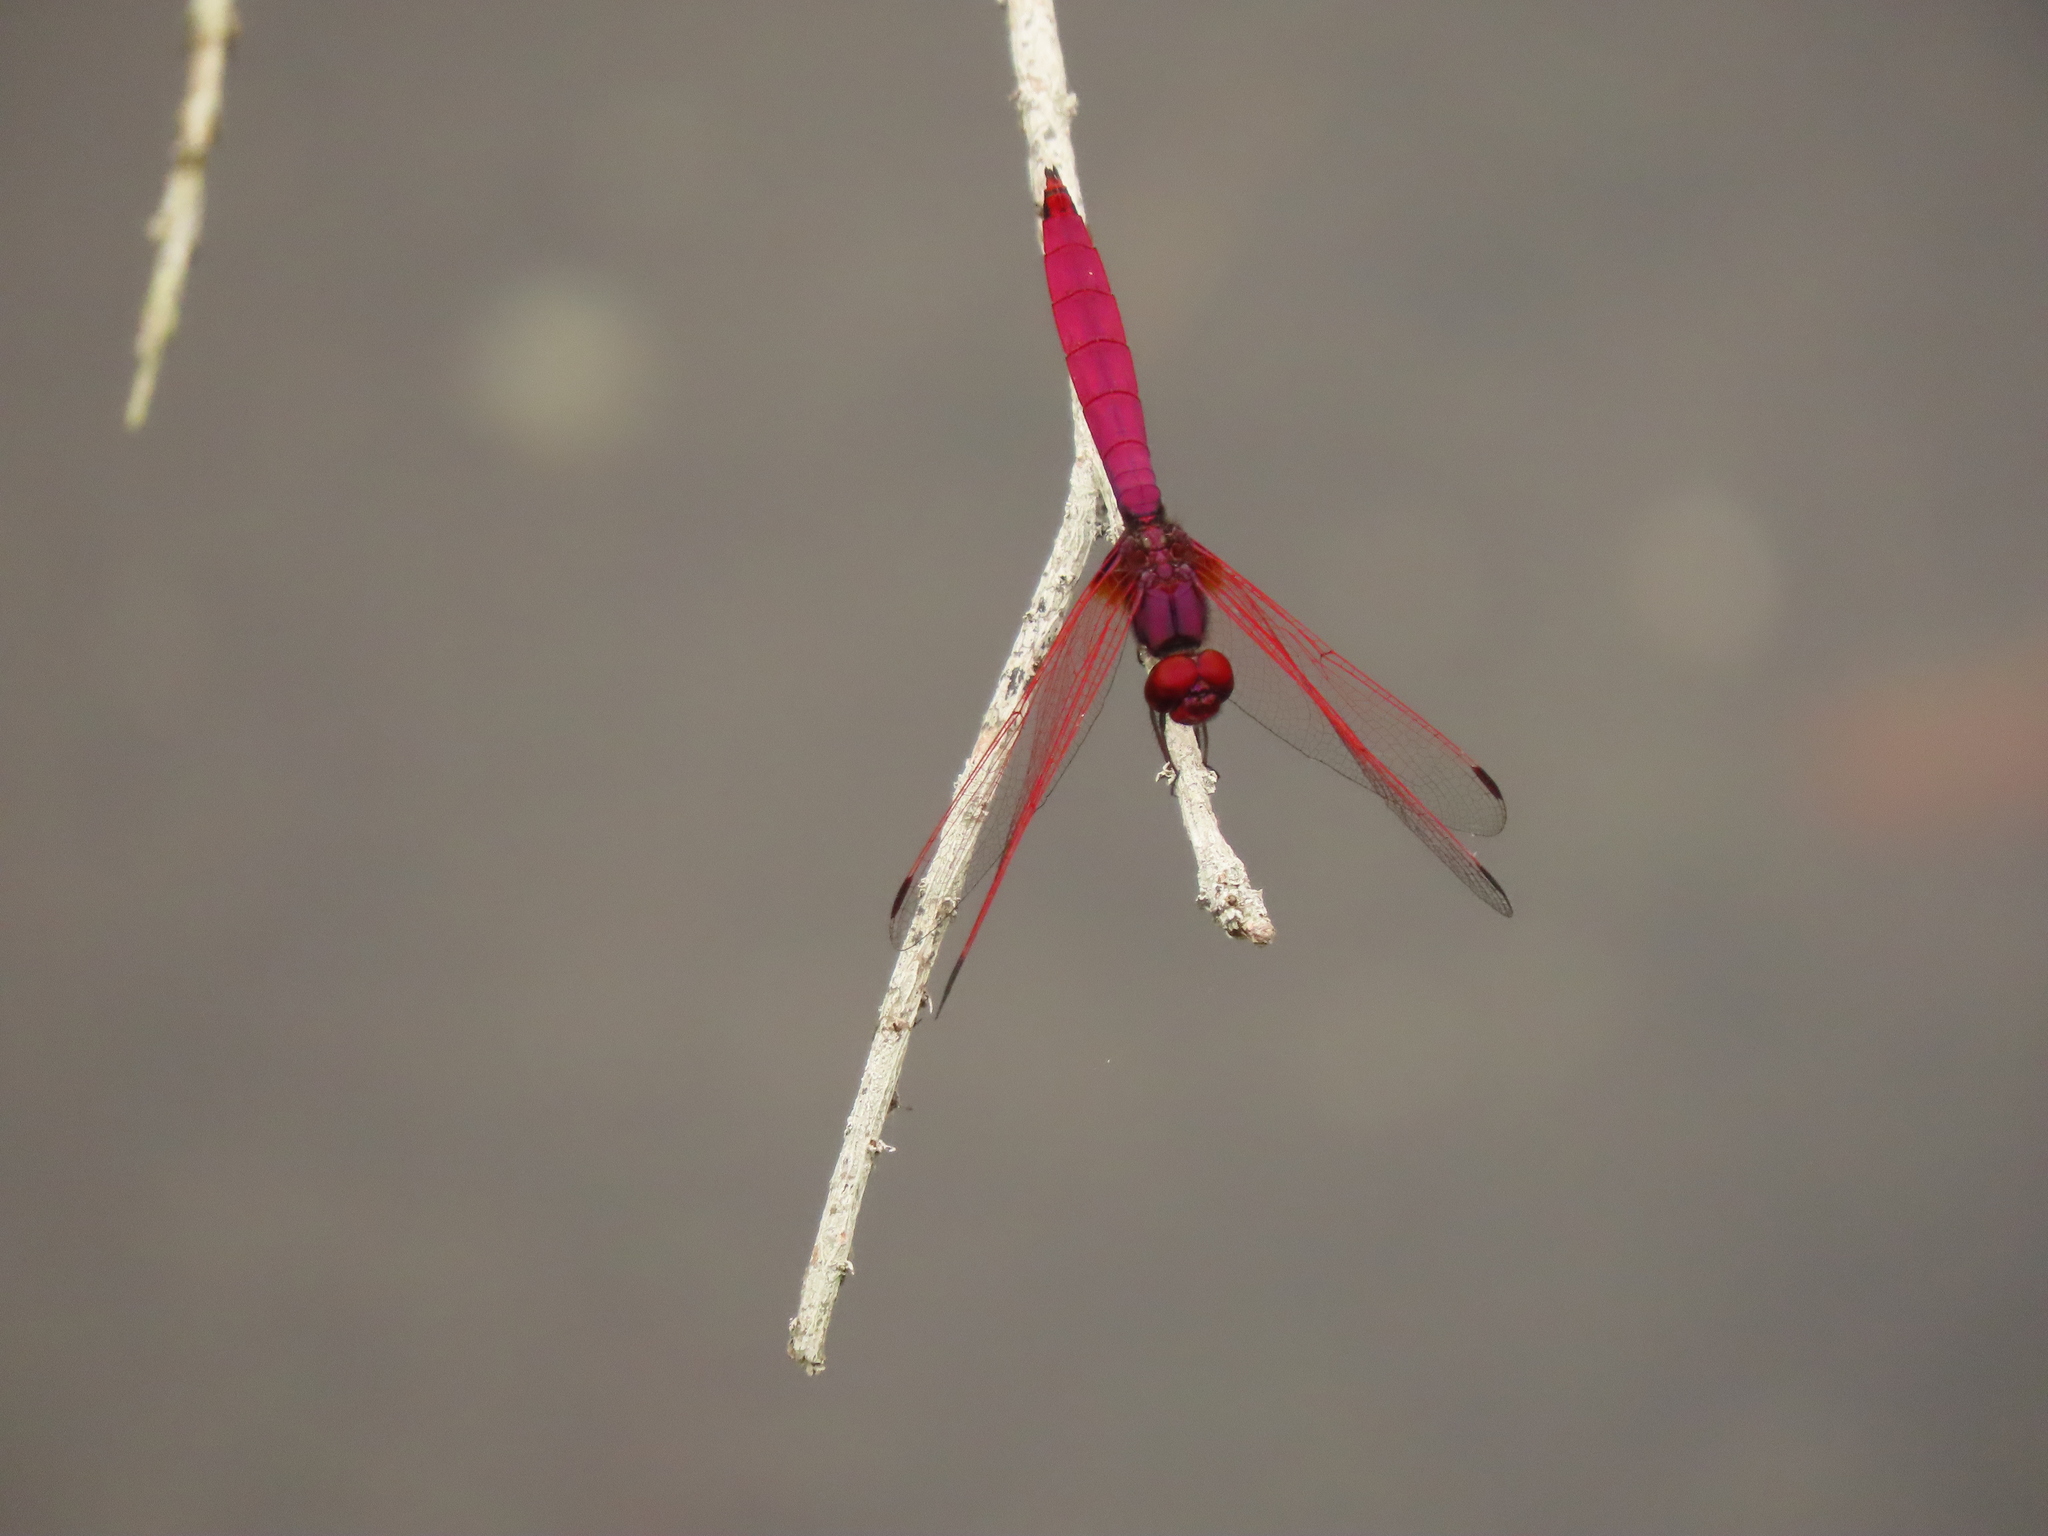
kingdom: Animalia
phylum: Arthropoda
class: Insecta
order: Odonata
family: Libellulidae
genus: Trithemis
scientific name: Trithemis aurora
